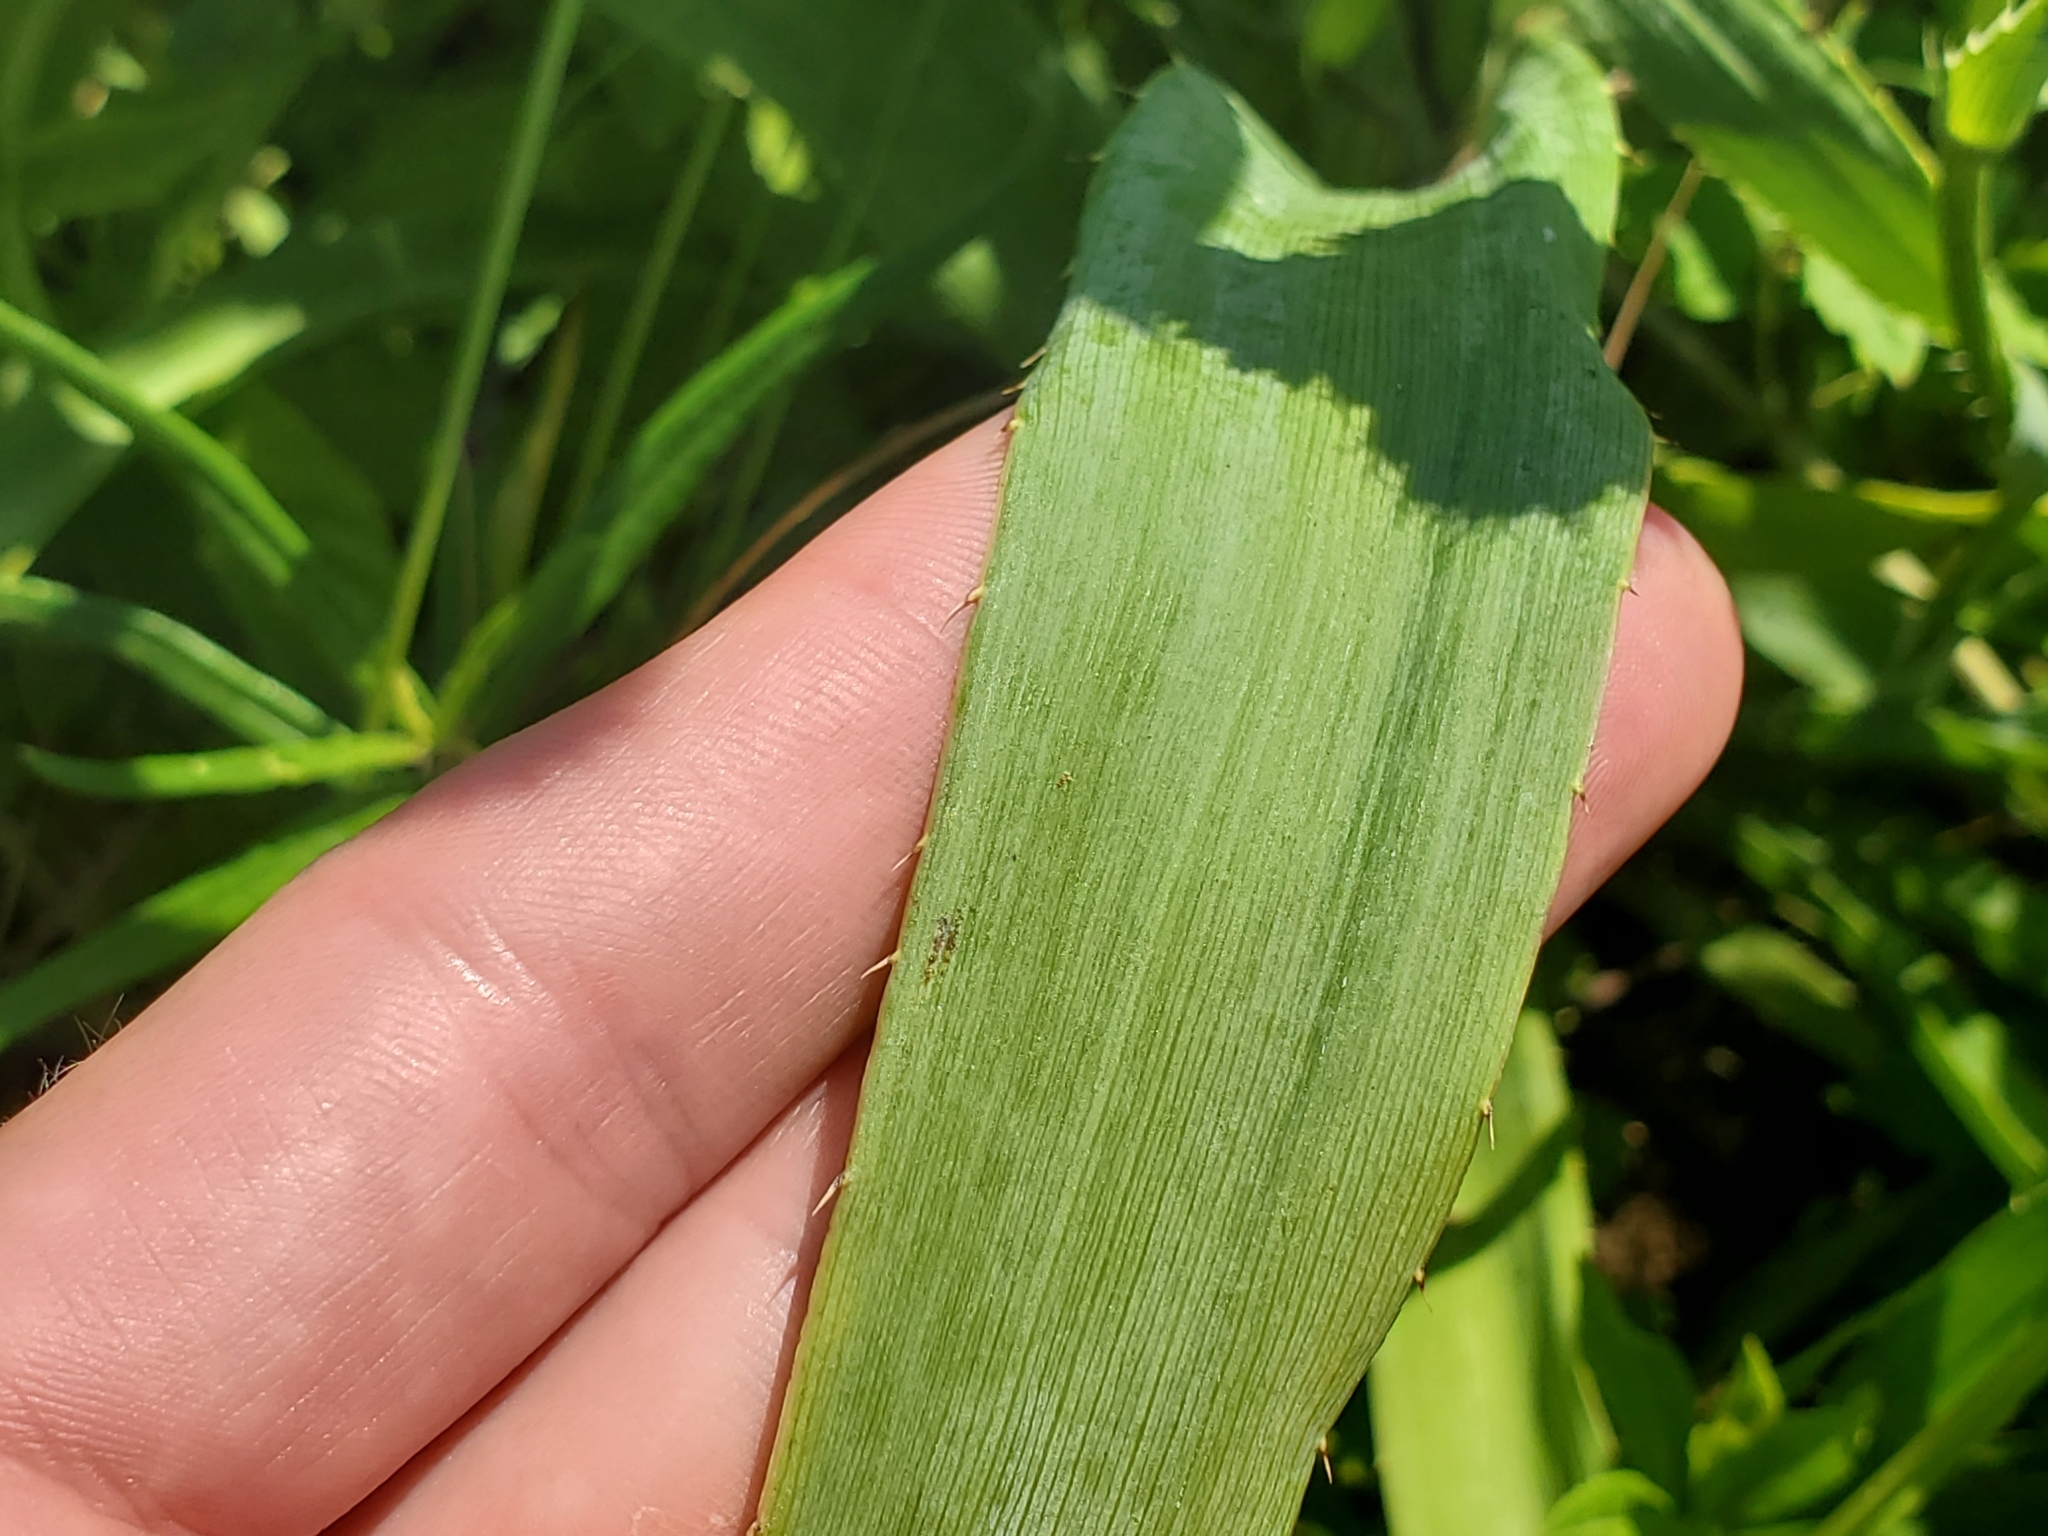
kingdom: Plantae
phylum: Tracheophyta
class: Magnoliopsida
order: Apiales
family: Apiaceae
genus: Eryngium
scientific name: Eryngium yuccifolium
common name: Button eryngo
